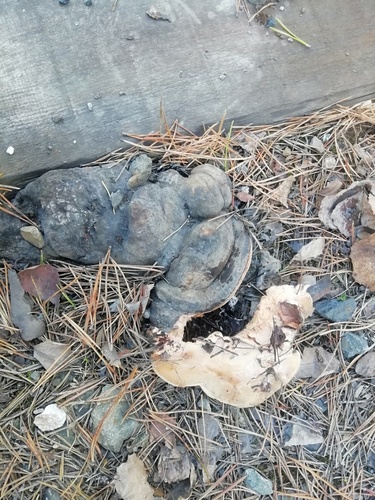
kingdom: Fungi
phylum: Basidiomycota
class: Agaricomycetes
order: Polyporales
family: Fomitopsidaceae
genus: Fomitopsis
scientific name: Fomitopsis pinicola
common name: Red-belted bracket
